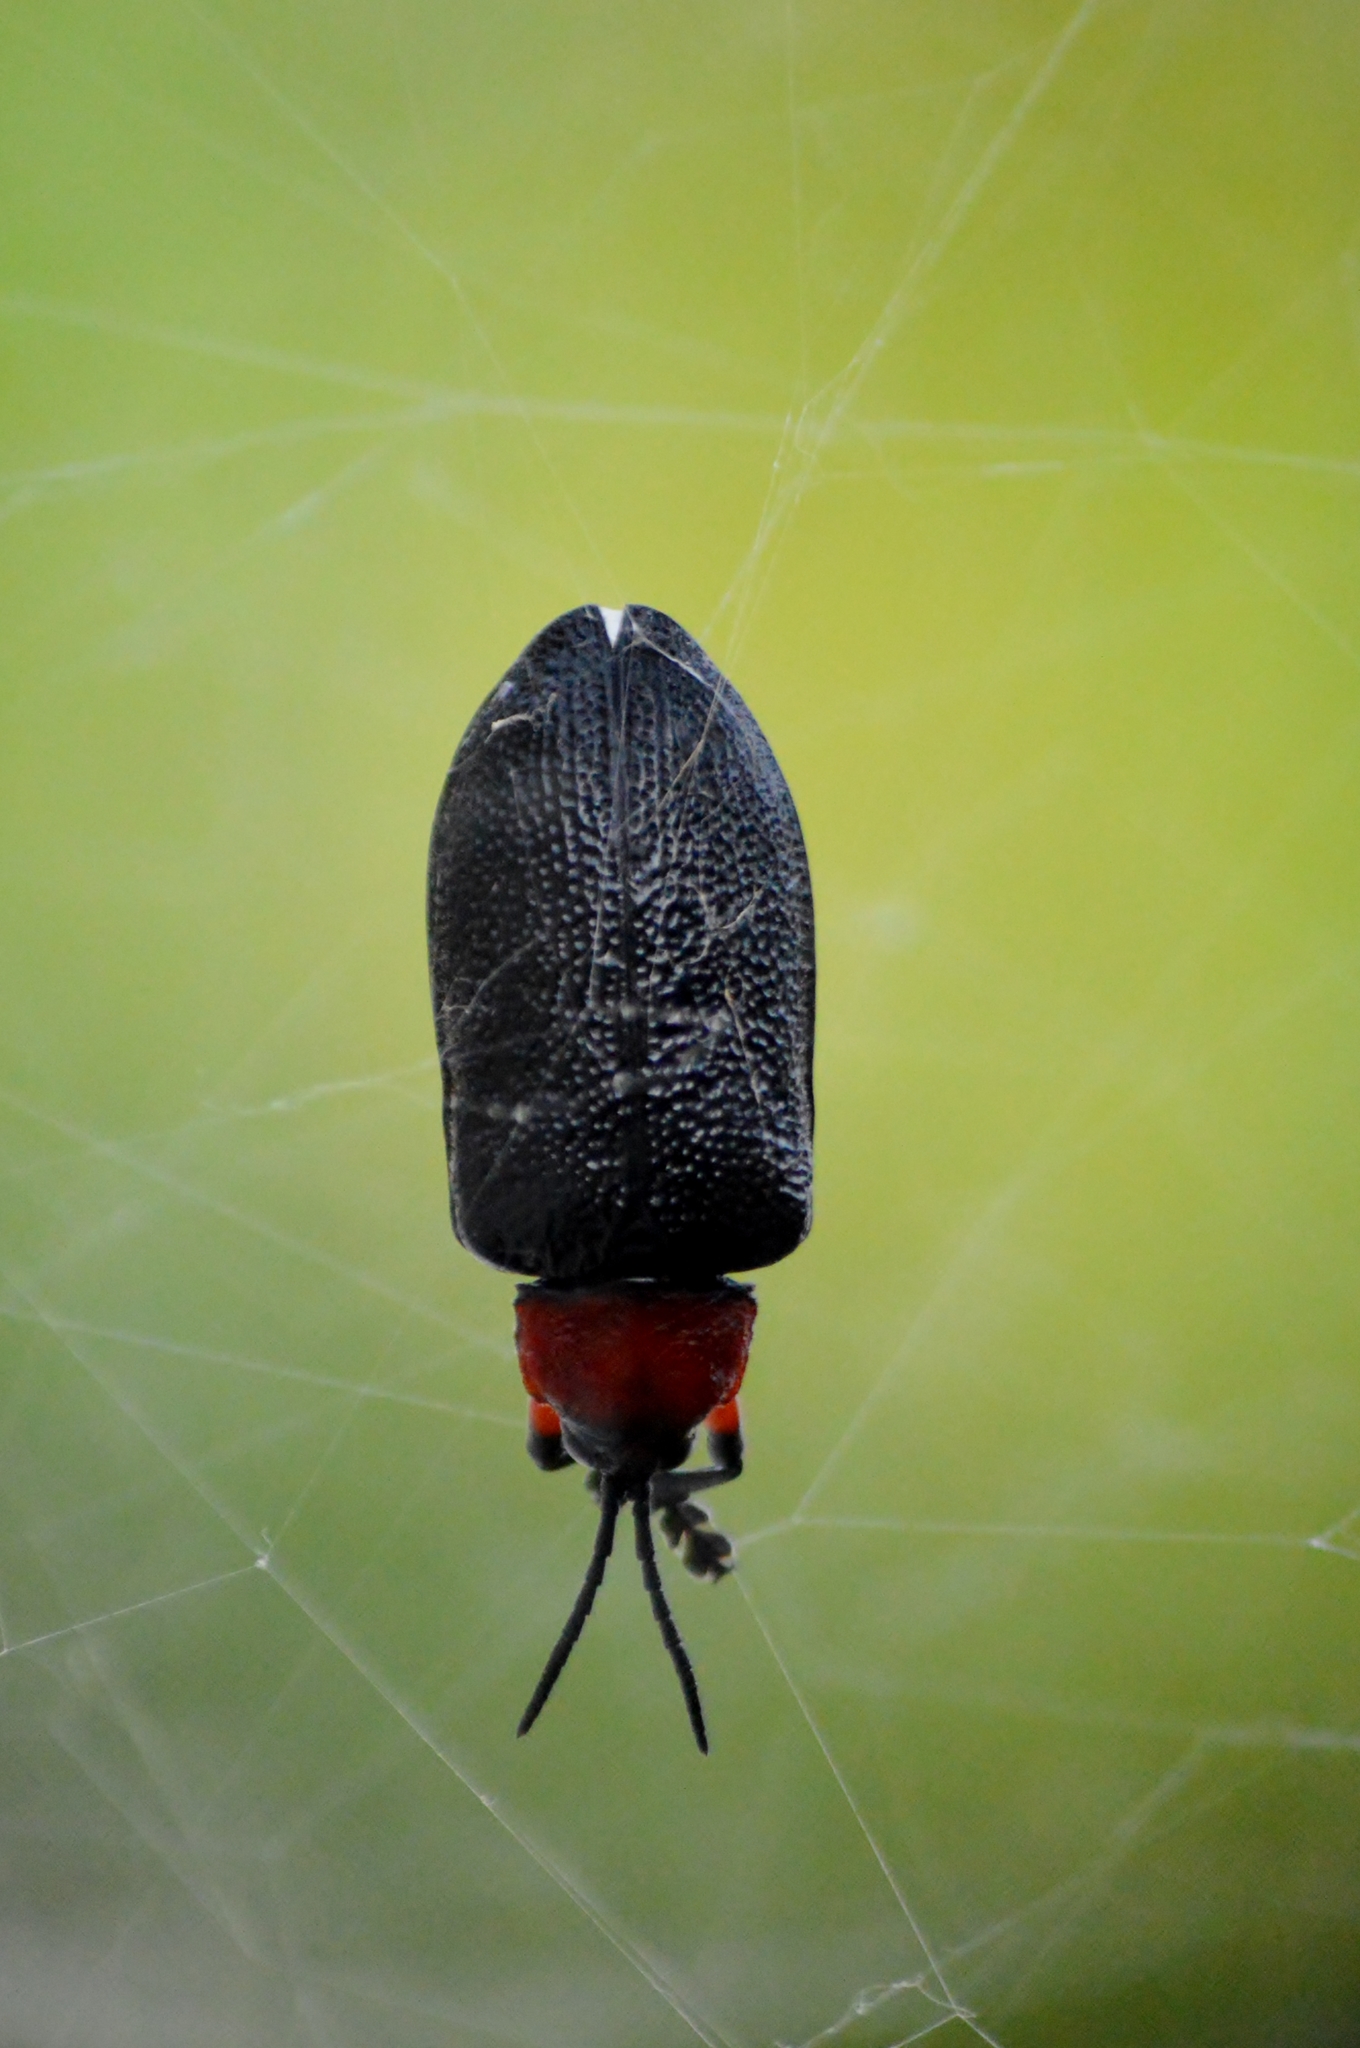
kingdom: Animalia
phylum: Arthropoda
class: Insecta
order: Coleoptera
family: Chrysomelidae
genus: Coraliomela
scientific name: Coraliomela brunnea
